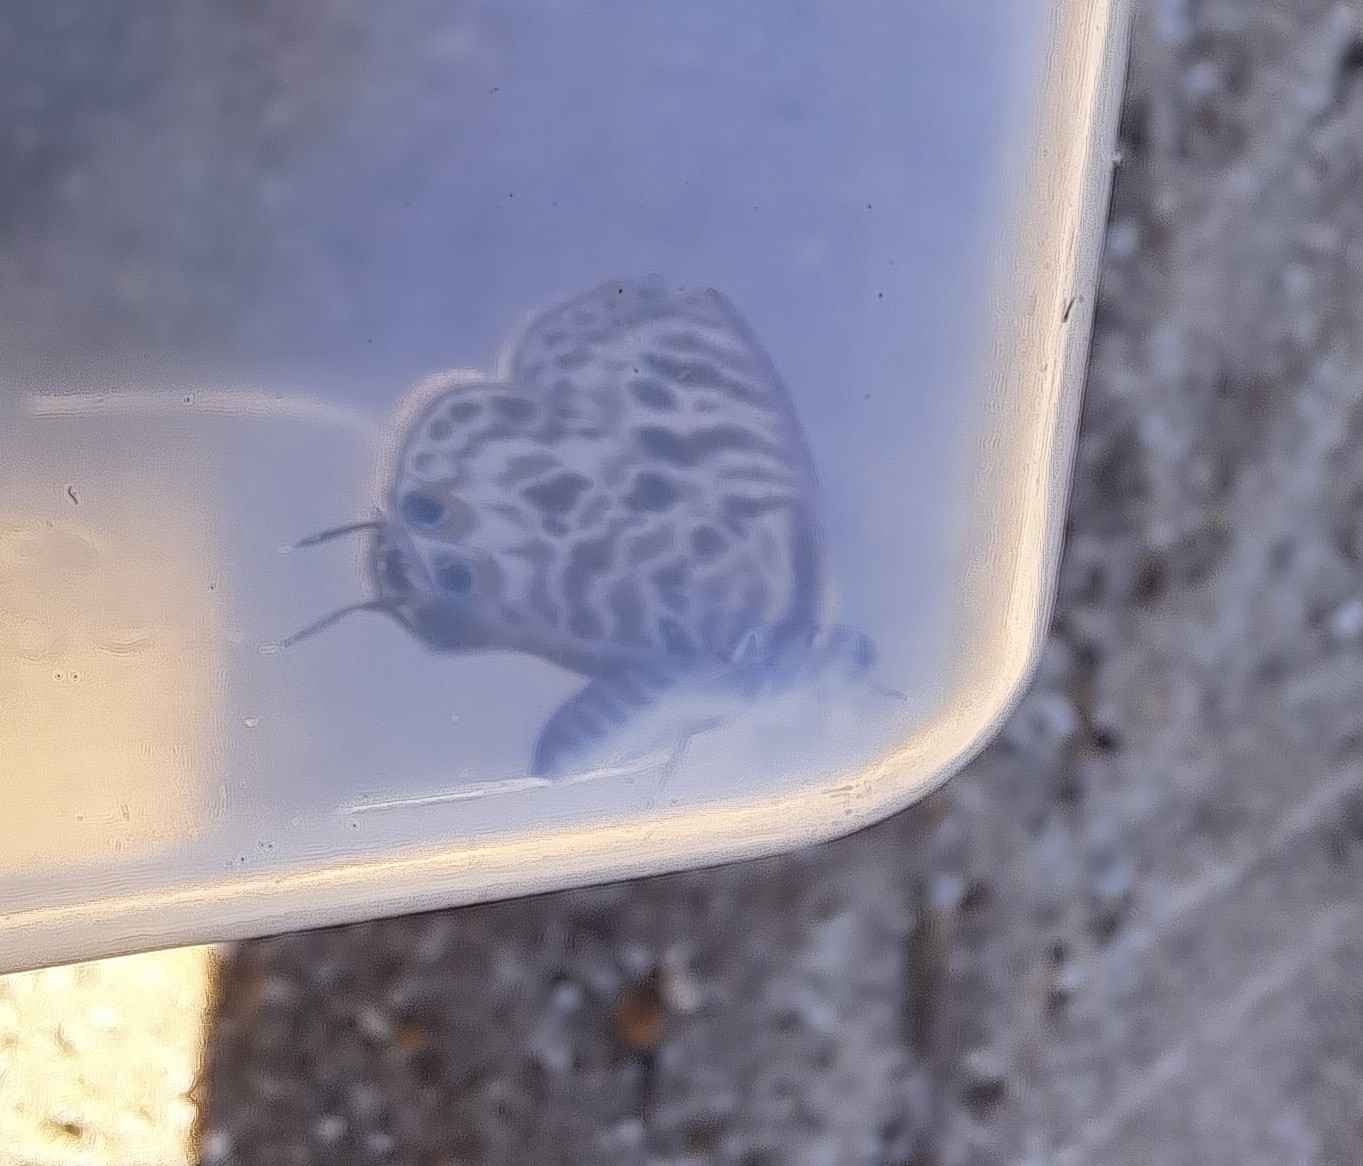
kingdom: Animalia
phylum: Arthropoda
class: Insecta
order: Lepidoptera
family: Lycaenidae
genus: Leptotes
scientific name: Leptotes
